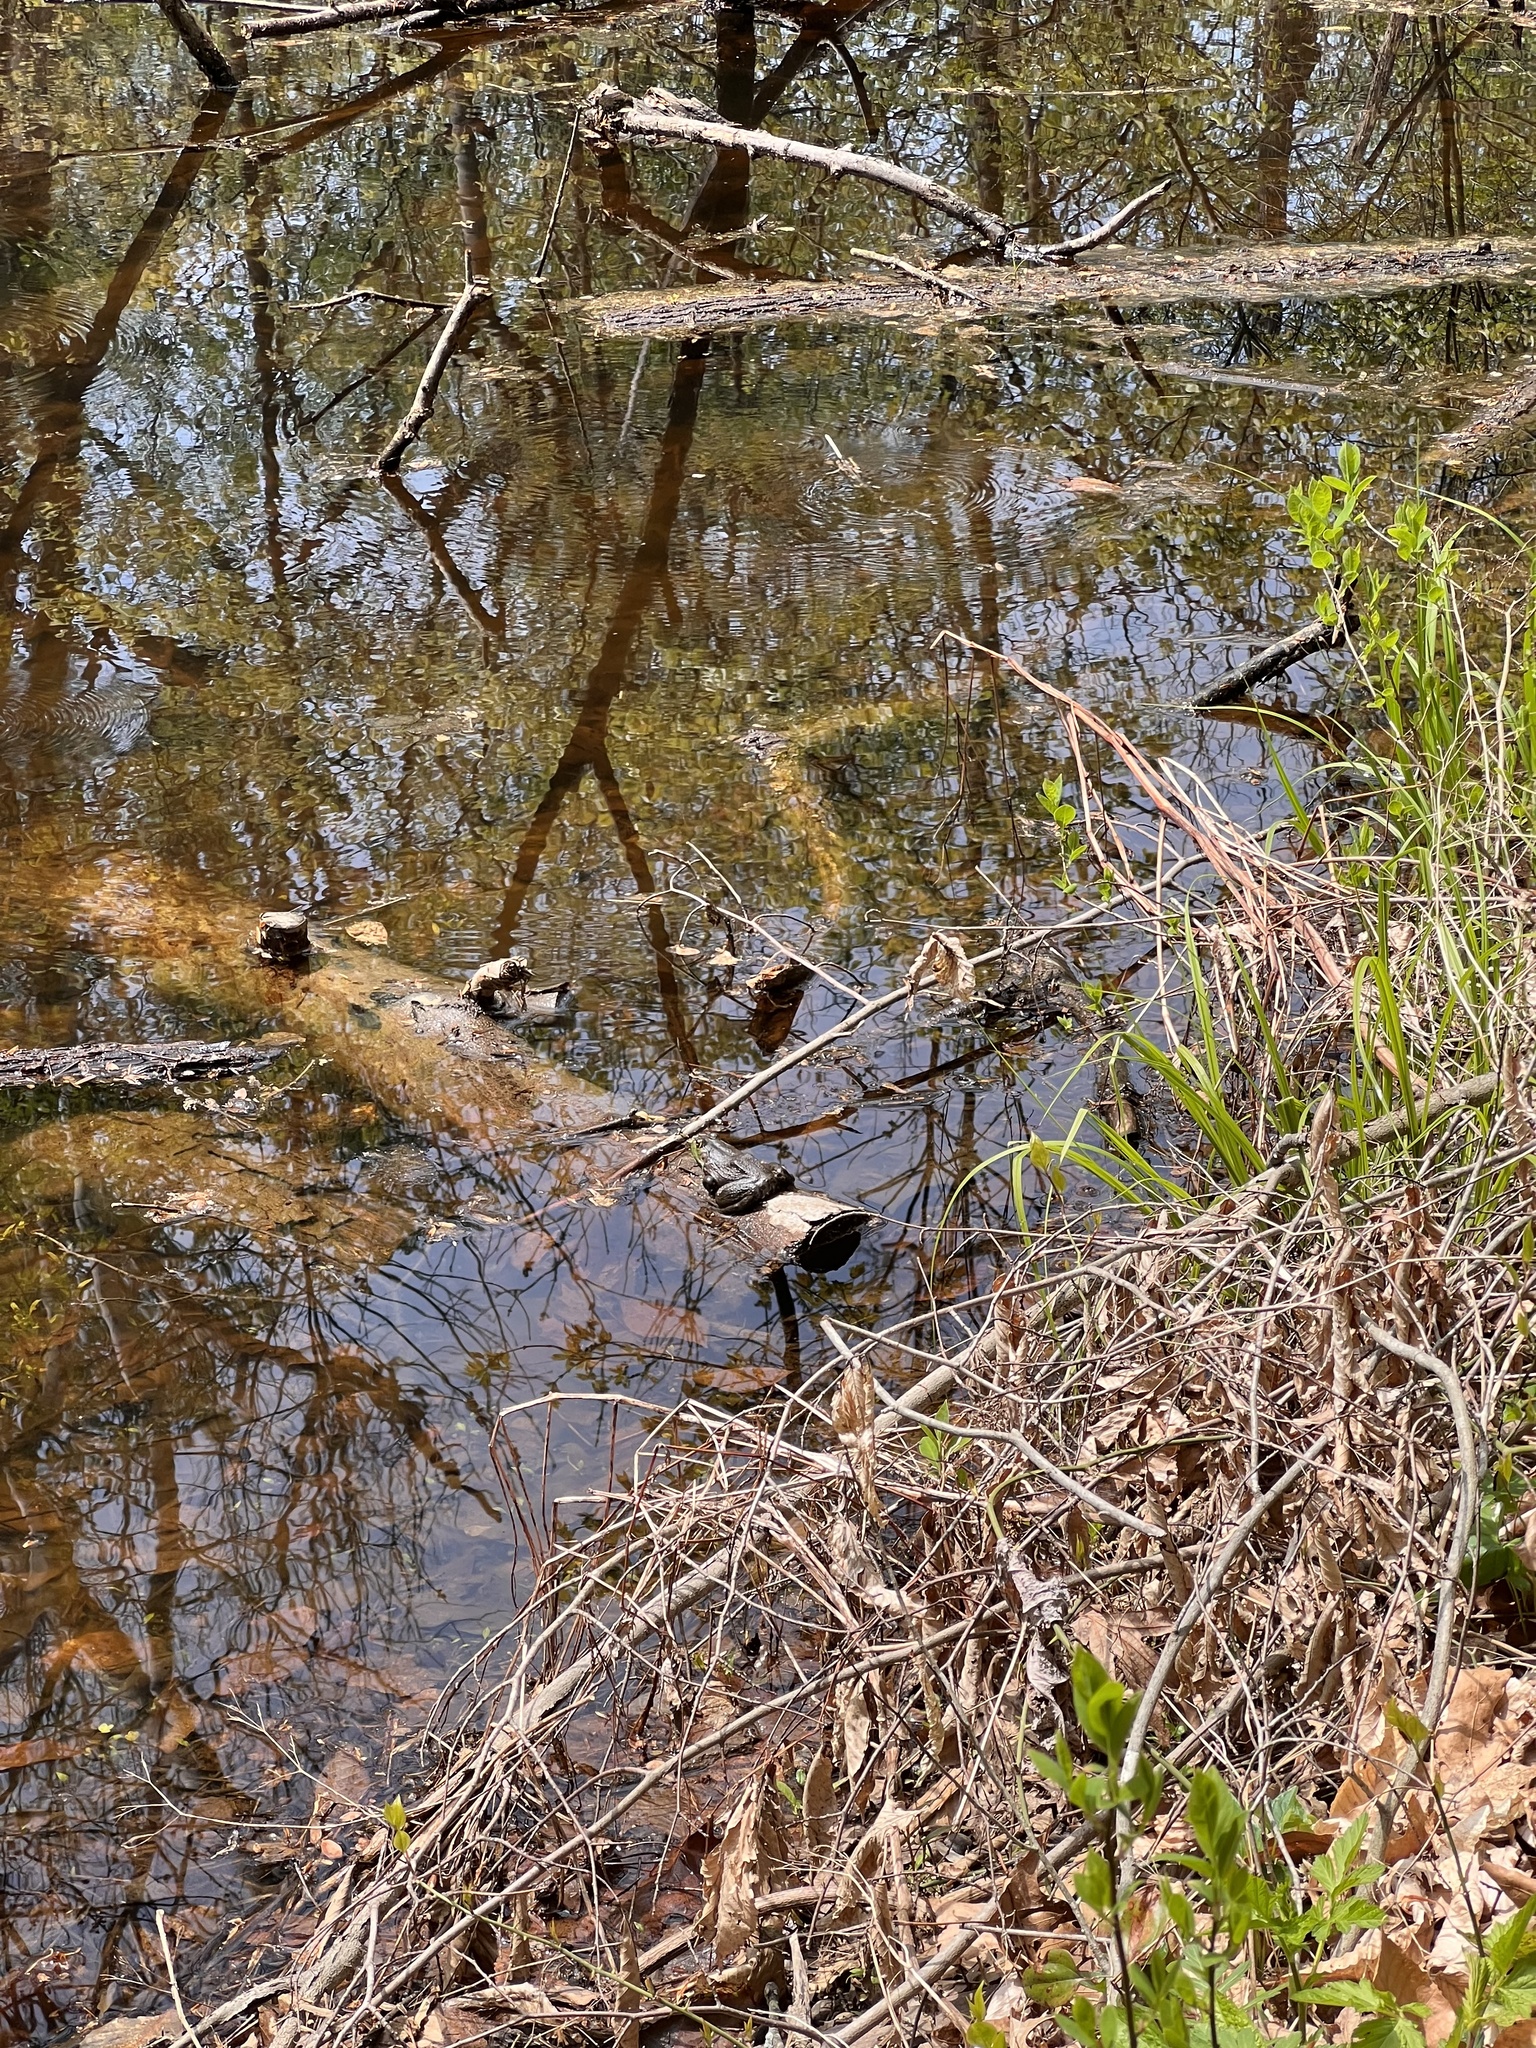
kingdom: Animalia
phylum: Chordata
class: Amphibia
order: Anura
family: Ranidae
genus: Lithobates
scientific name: Lithobates catesbeianus
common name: American bullfrog
